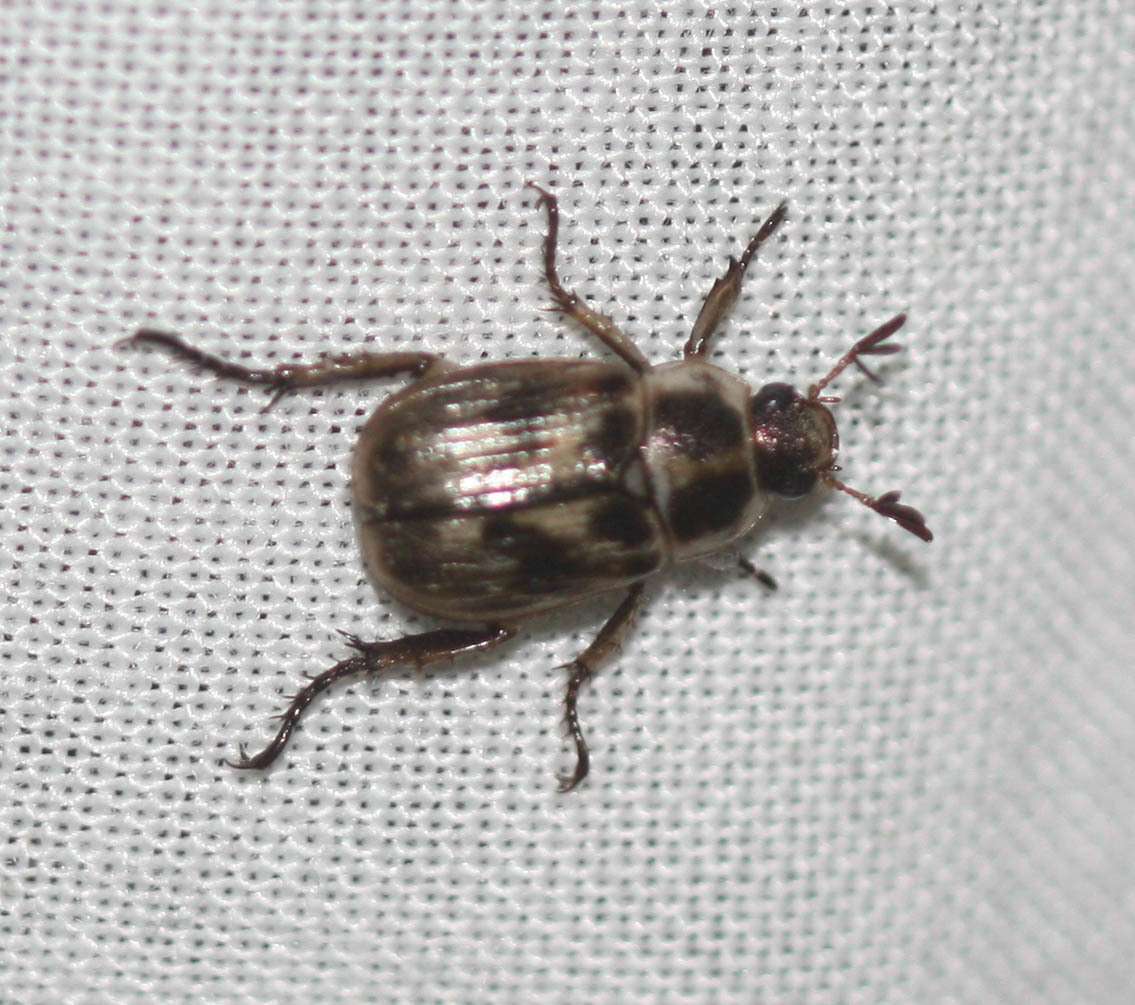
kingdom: Animalia
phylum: Arthropoda
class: Insecta
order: Coleoptera
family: Scarabaeidae
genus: Exomala
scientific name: Exomala orientalis
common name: Oriental beetle
